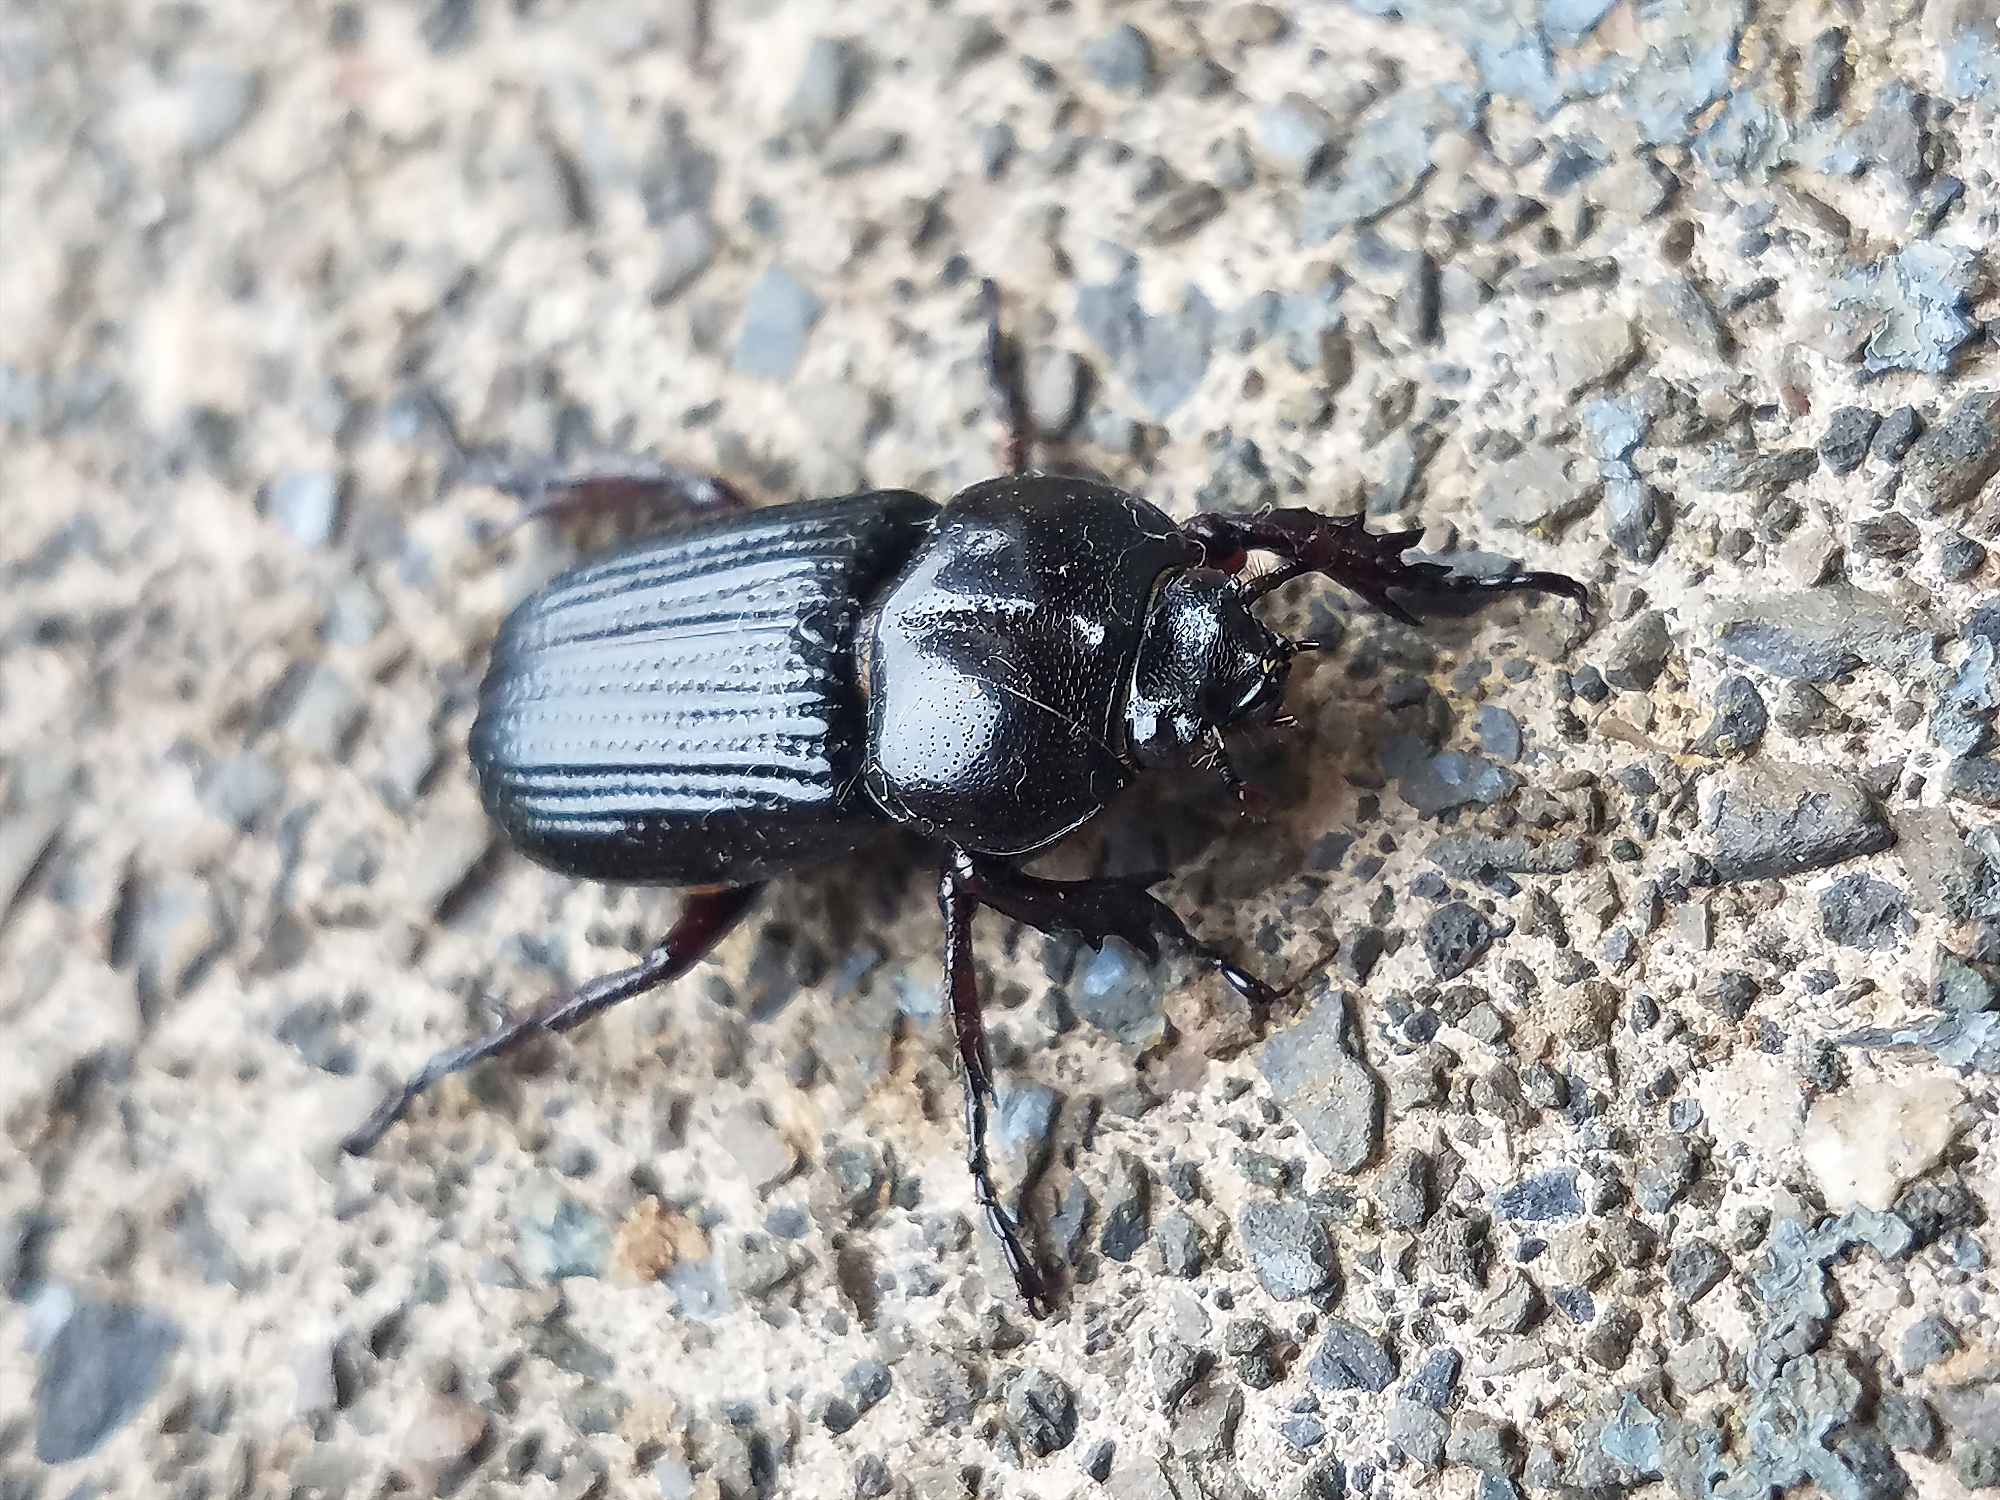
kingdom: Animalia
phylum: Arthropoda
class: Insecta
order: Coleoptera
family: Scarabaeidae
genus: Phileurus
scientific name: Phileurus valgus
